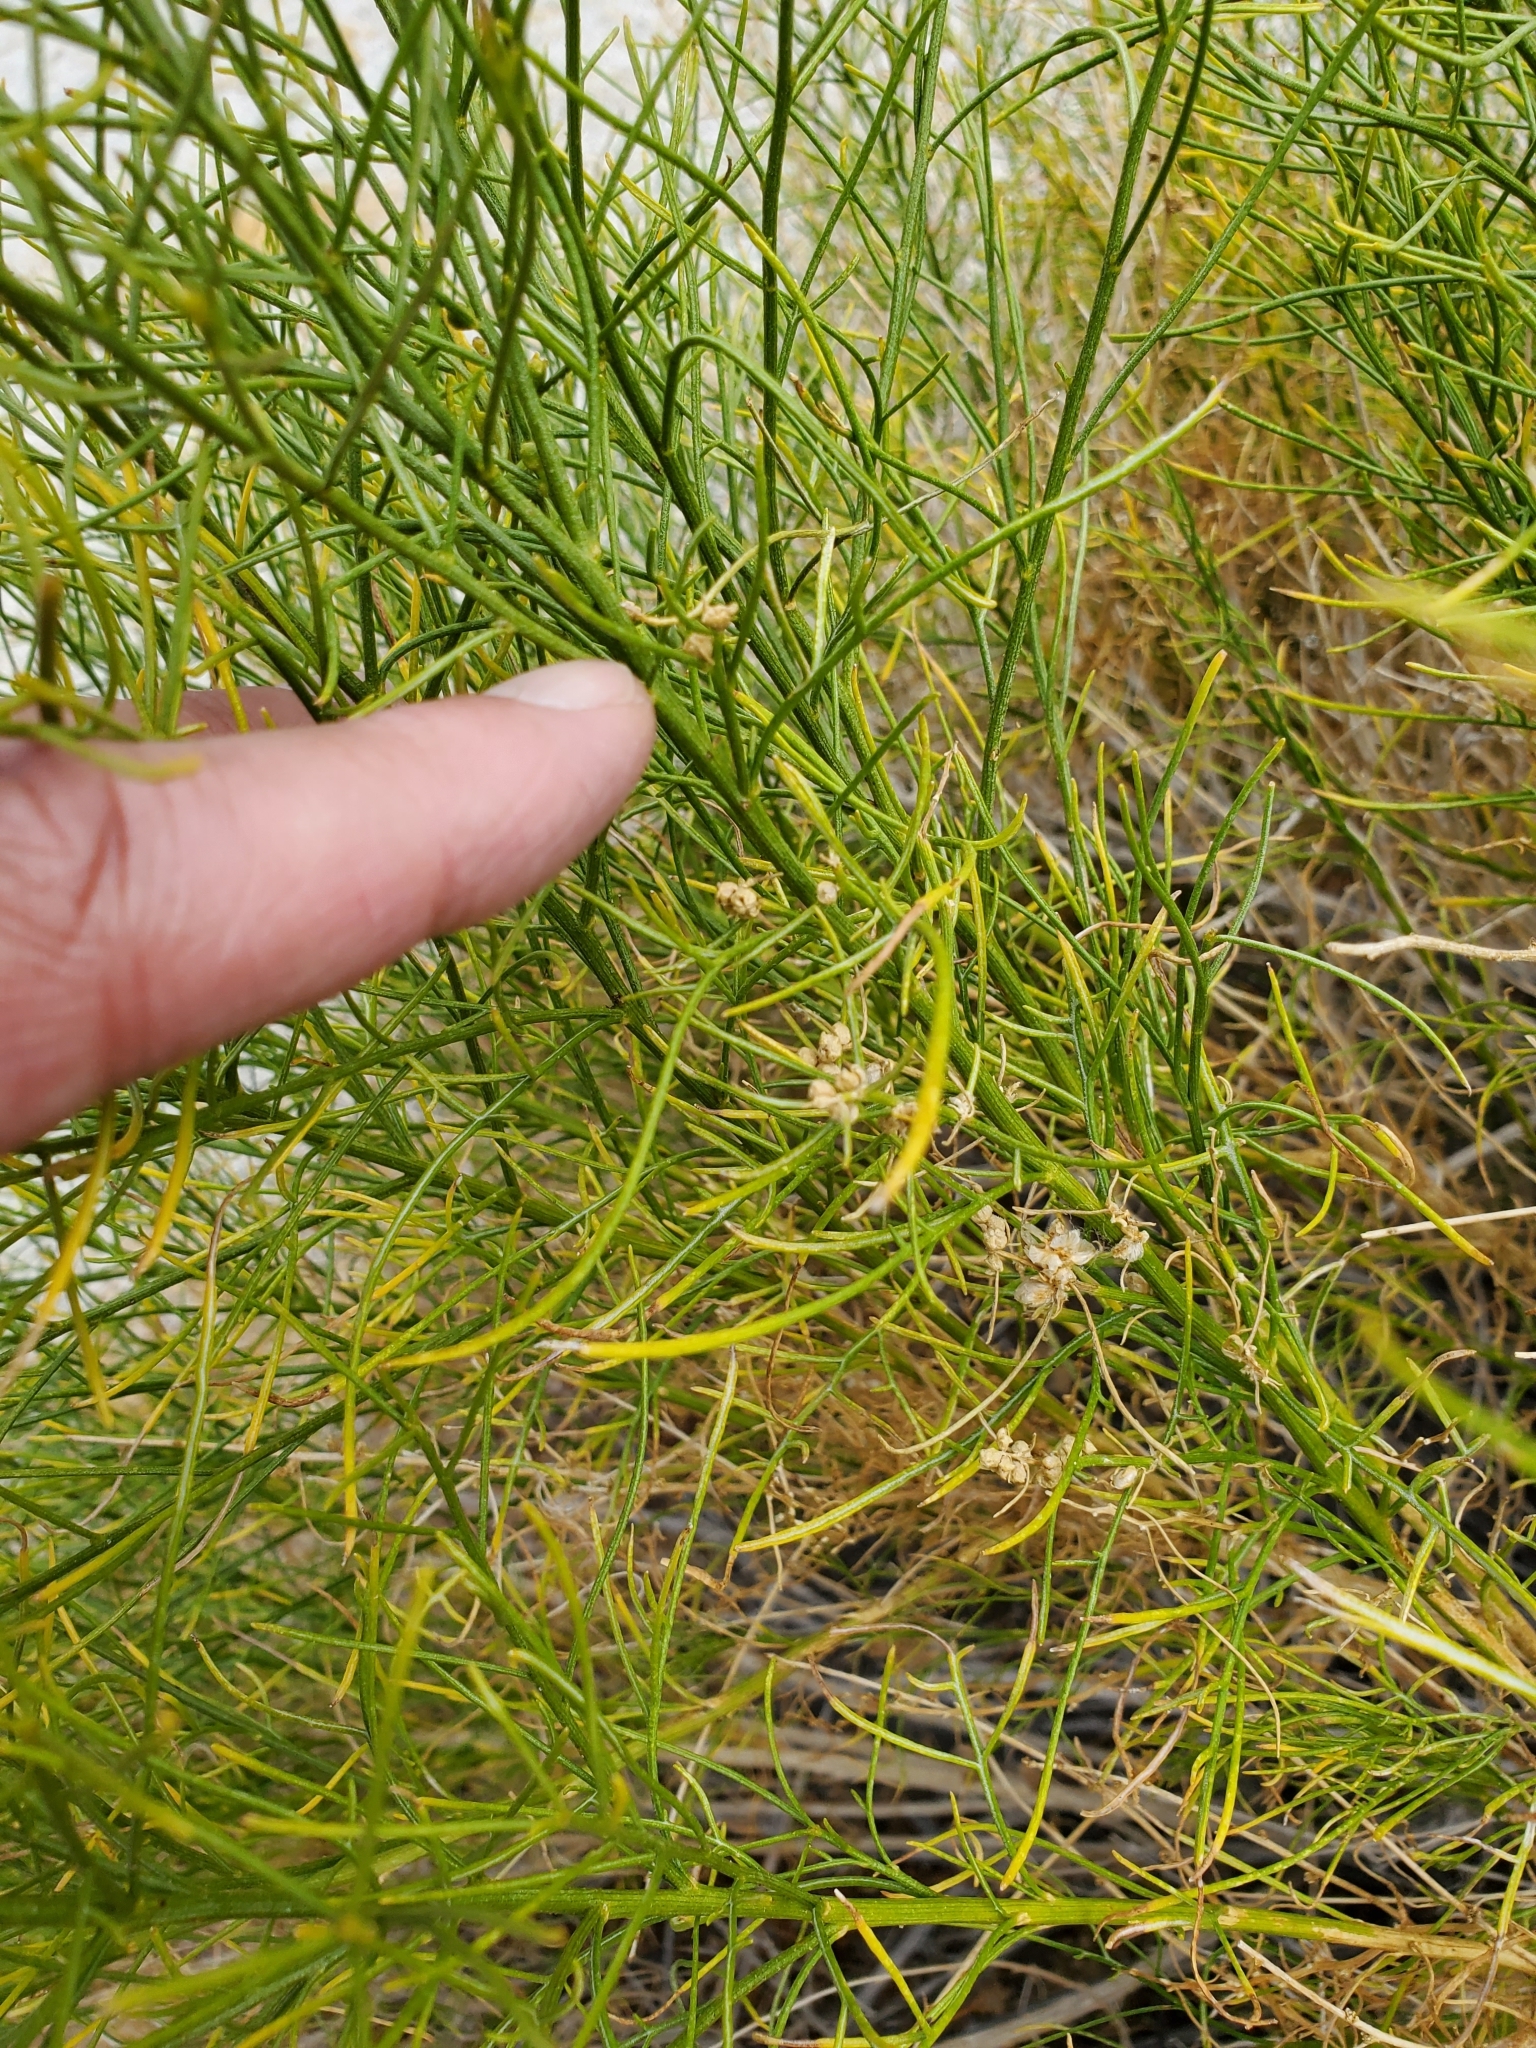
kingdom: Plantae
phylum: Tracheophyta
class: Magnoliopsida
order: Asterales
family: Asteraceae
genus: Ambrosia
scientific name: Ambrosia salsola
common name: Burrobrush
